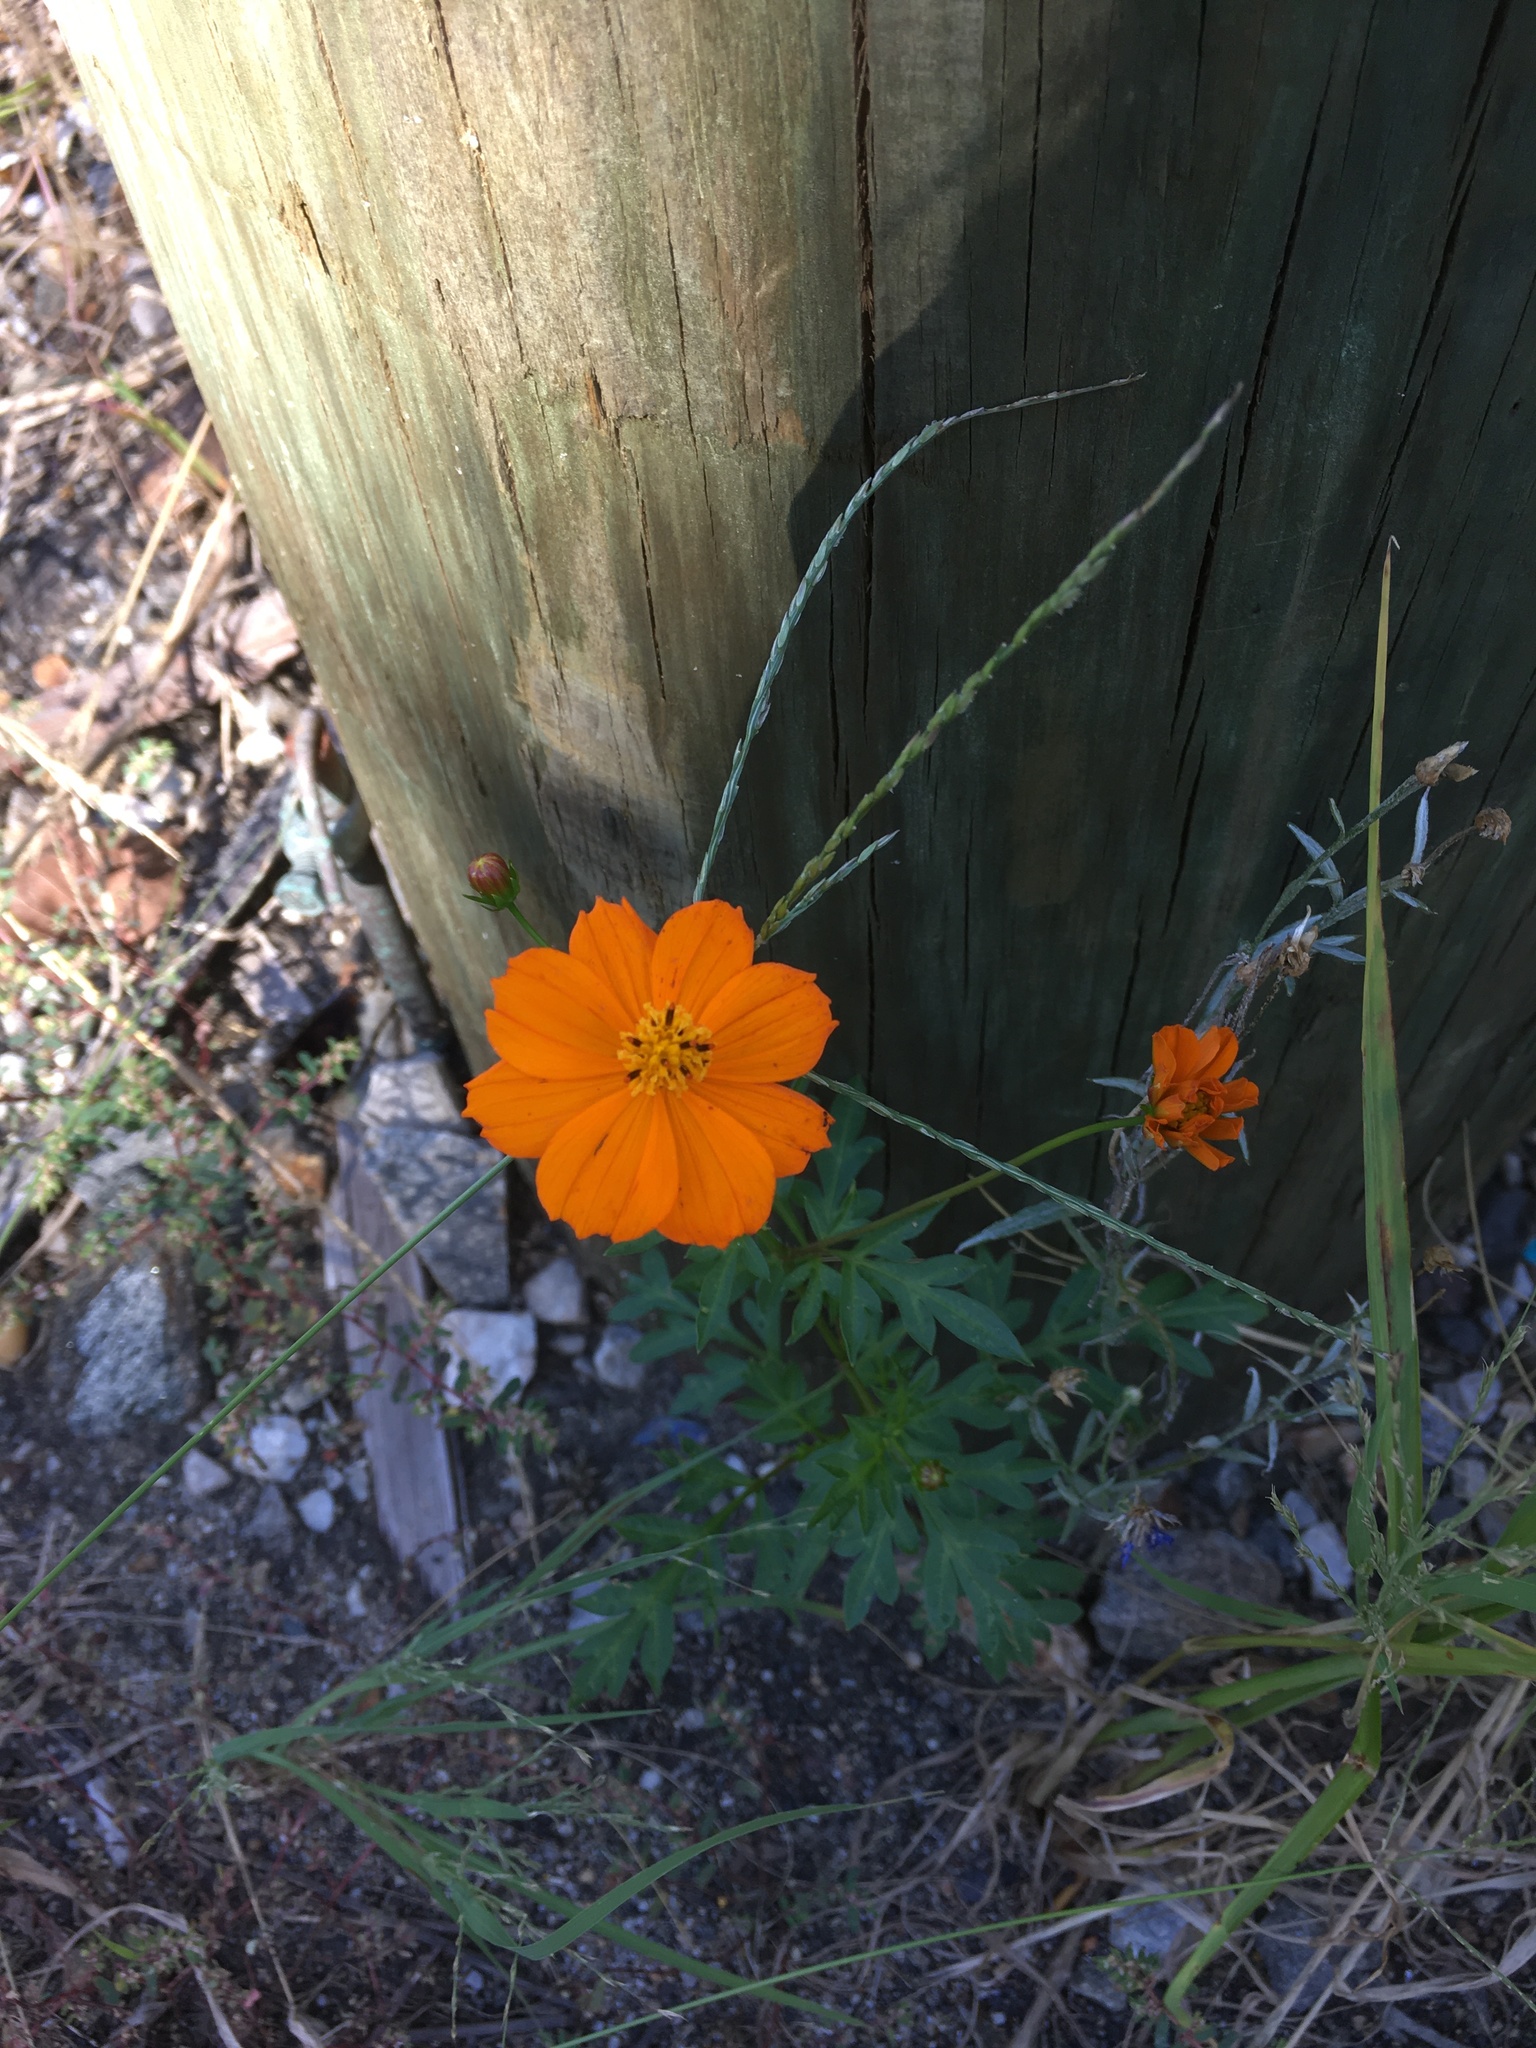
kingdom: Plantae
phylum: Tracheophyta
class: Magnoliopsida
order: Asterales
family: Asteraceae
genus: Cosmos
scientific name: Cosmos sulphureus
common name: Sulphur cosmos
